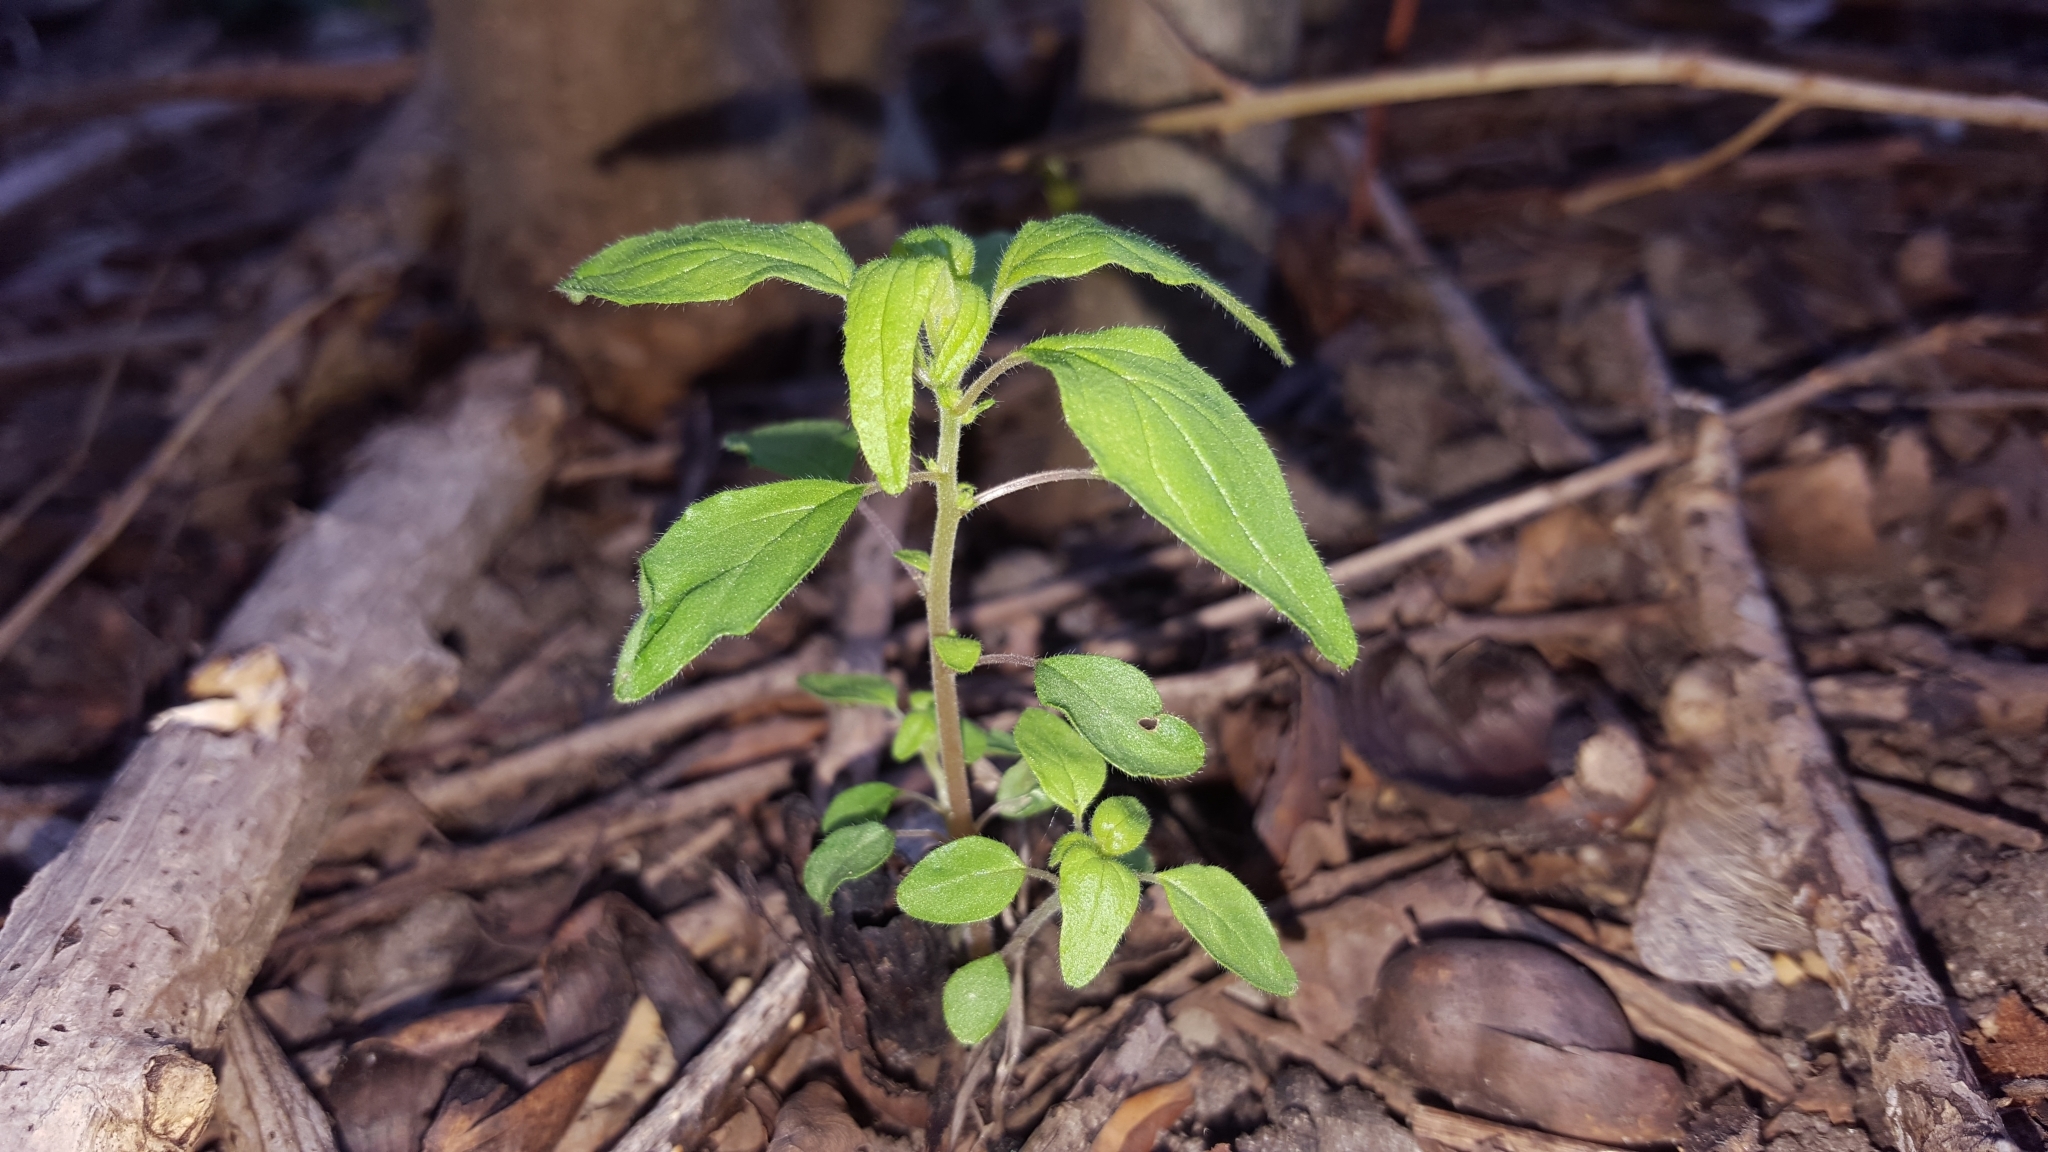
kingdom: Plantae
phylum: Tracheophyta
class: Magnoliopsida
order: Rosales
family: Urticaceae
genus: Parietaria
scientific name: Parietaria pensylvanica
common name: Pennsylvania pellitory
